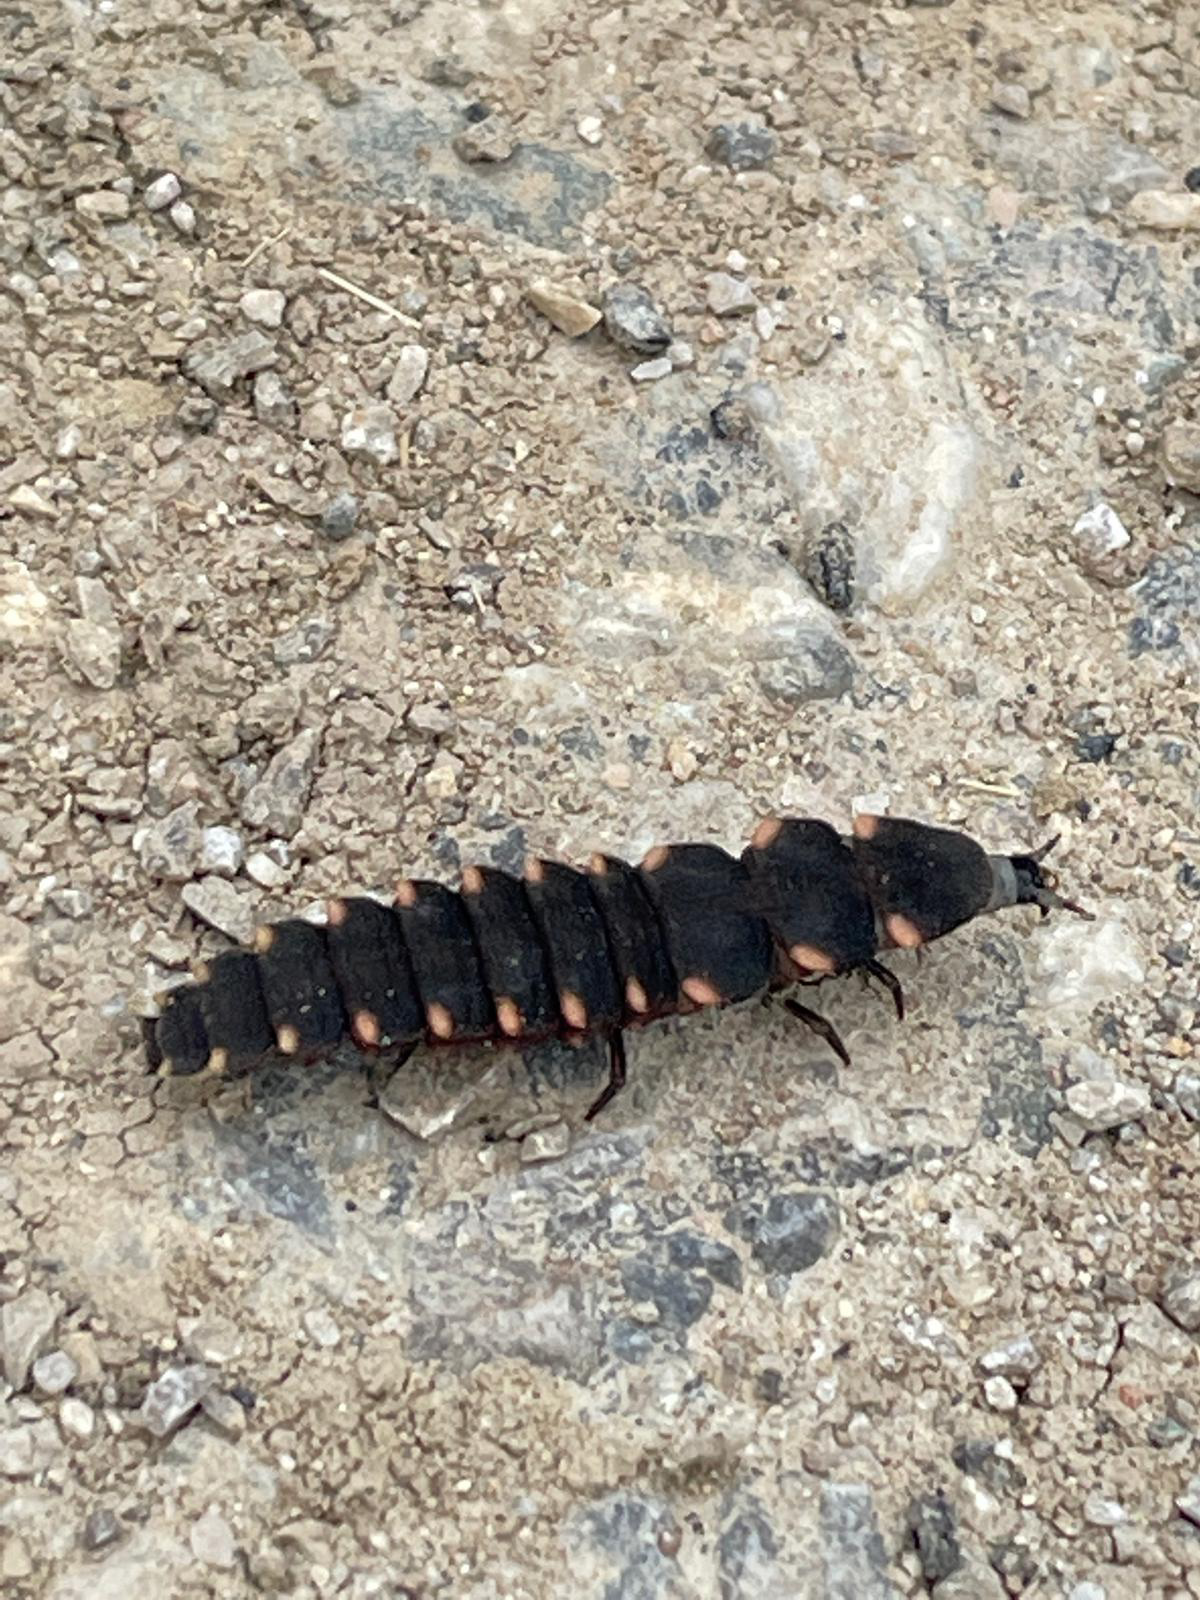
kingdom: Animalia
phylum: Arthropoda
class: Insecta
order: Coleoptera
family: Lampyridae
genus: Lampyris
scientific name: Lampyris noctiluca
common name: Glow-worm
